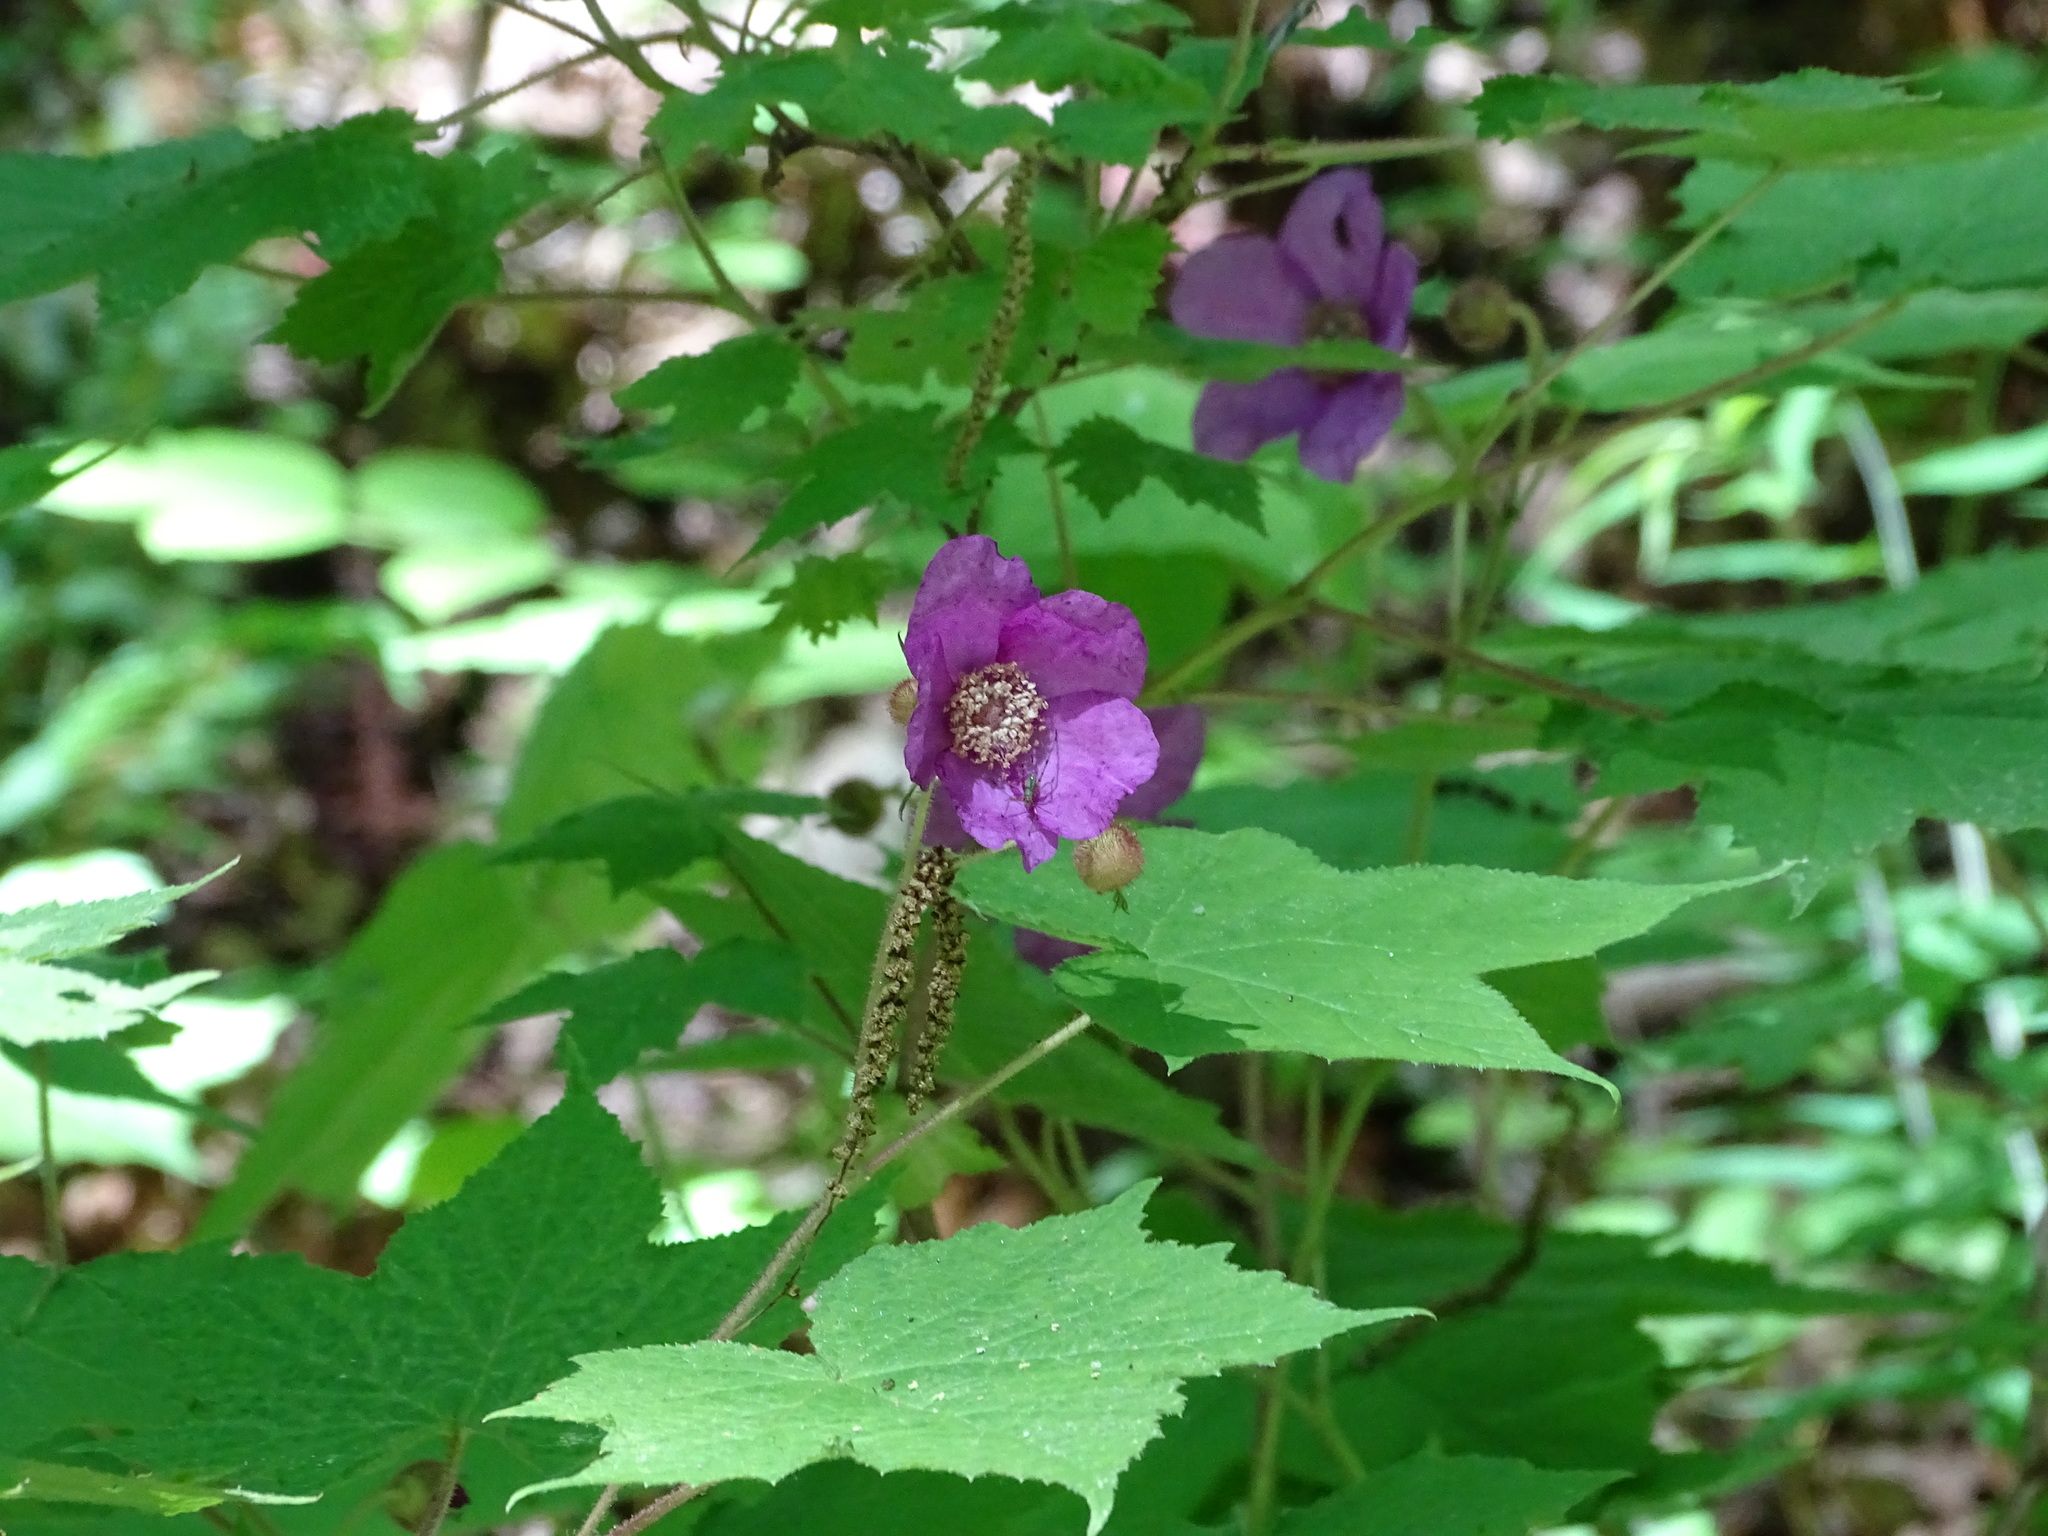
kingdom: Plantae
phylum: Tracheophyta
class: Magnoliopsida
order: Rosales
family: Rosaceae
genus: Rubus
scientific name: Rubus odoratus
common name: Purple-flowered raspberry
